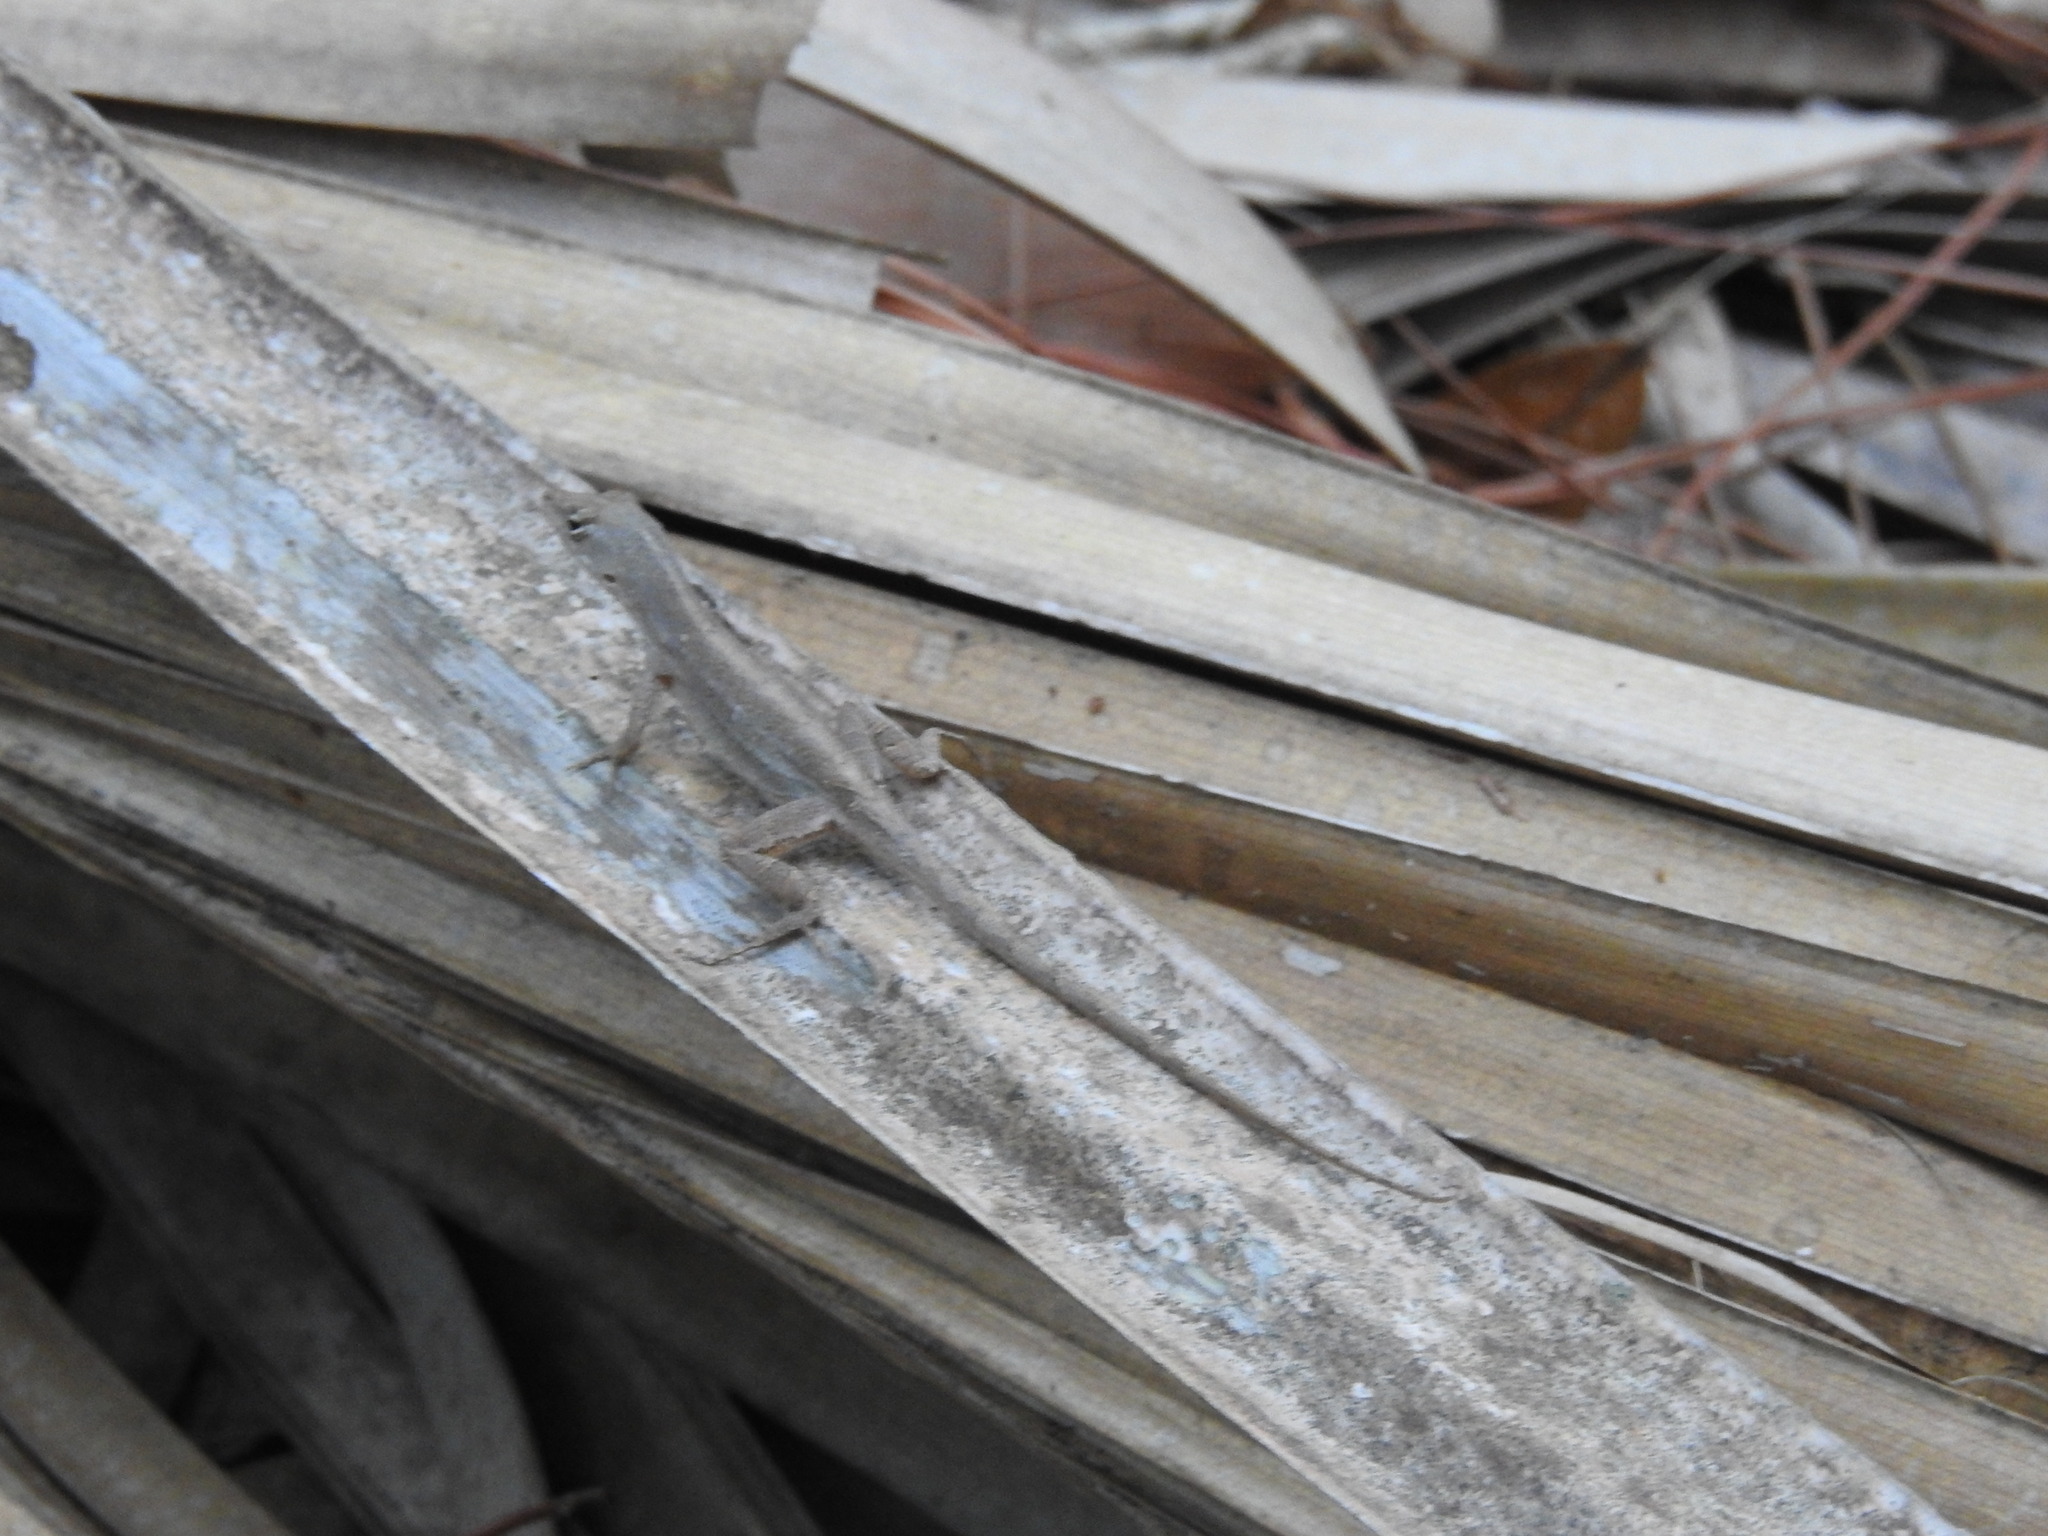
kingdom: Animalia
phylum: Chordata
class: Squamata
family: Dactyloidae
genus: Anolis
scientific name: Anolis sagrei
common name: Brown anole
